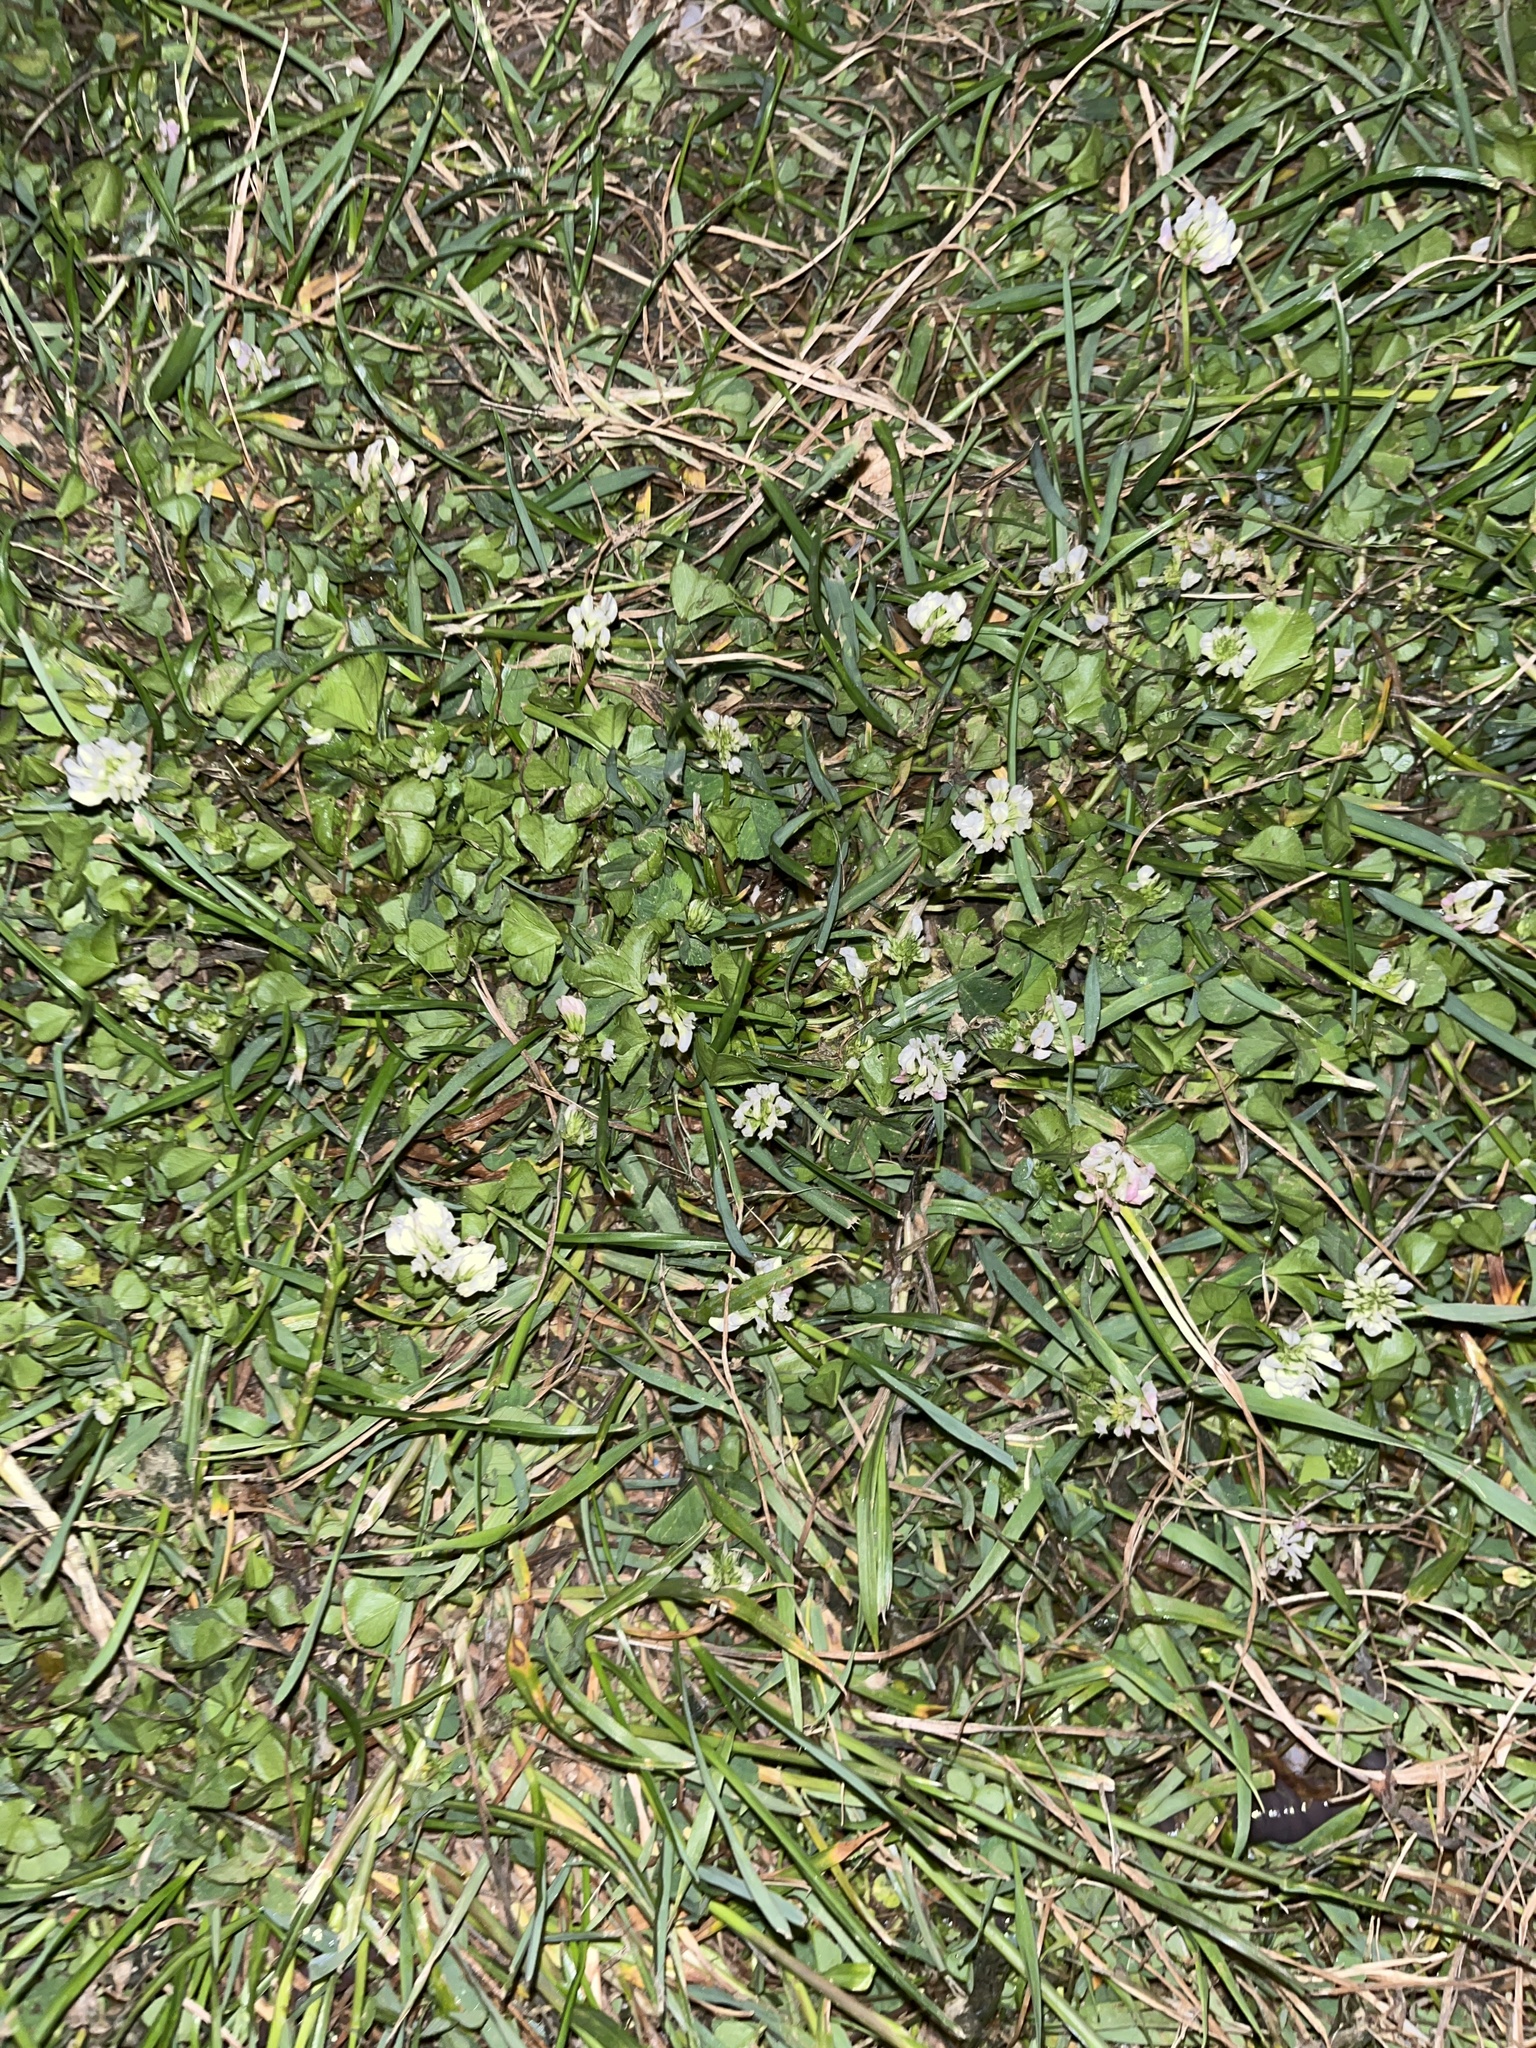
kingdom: Plantae
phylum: Tracheophyta
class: Magnoliopsida
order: Fabales
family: Fabaceae
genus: Trifolium
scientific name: Trifolium repens
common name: White clover
